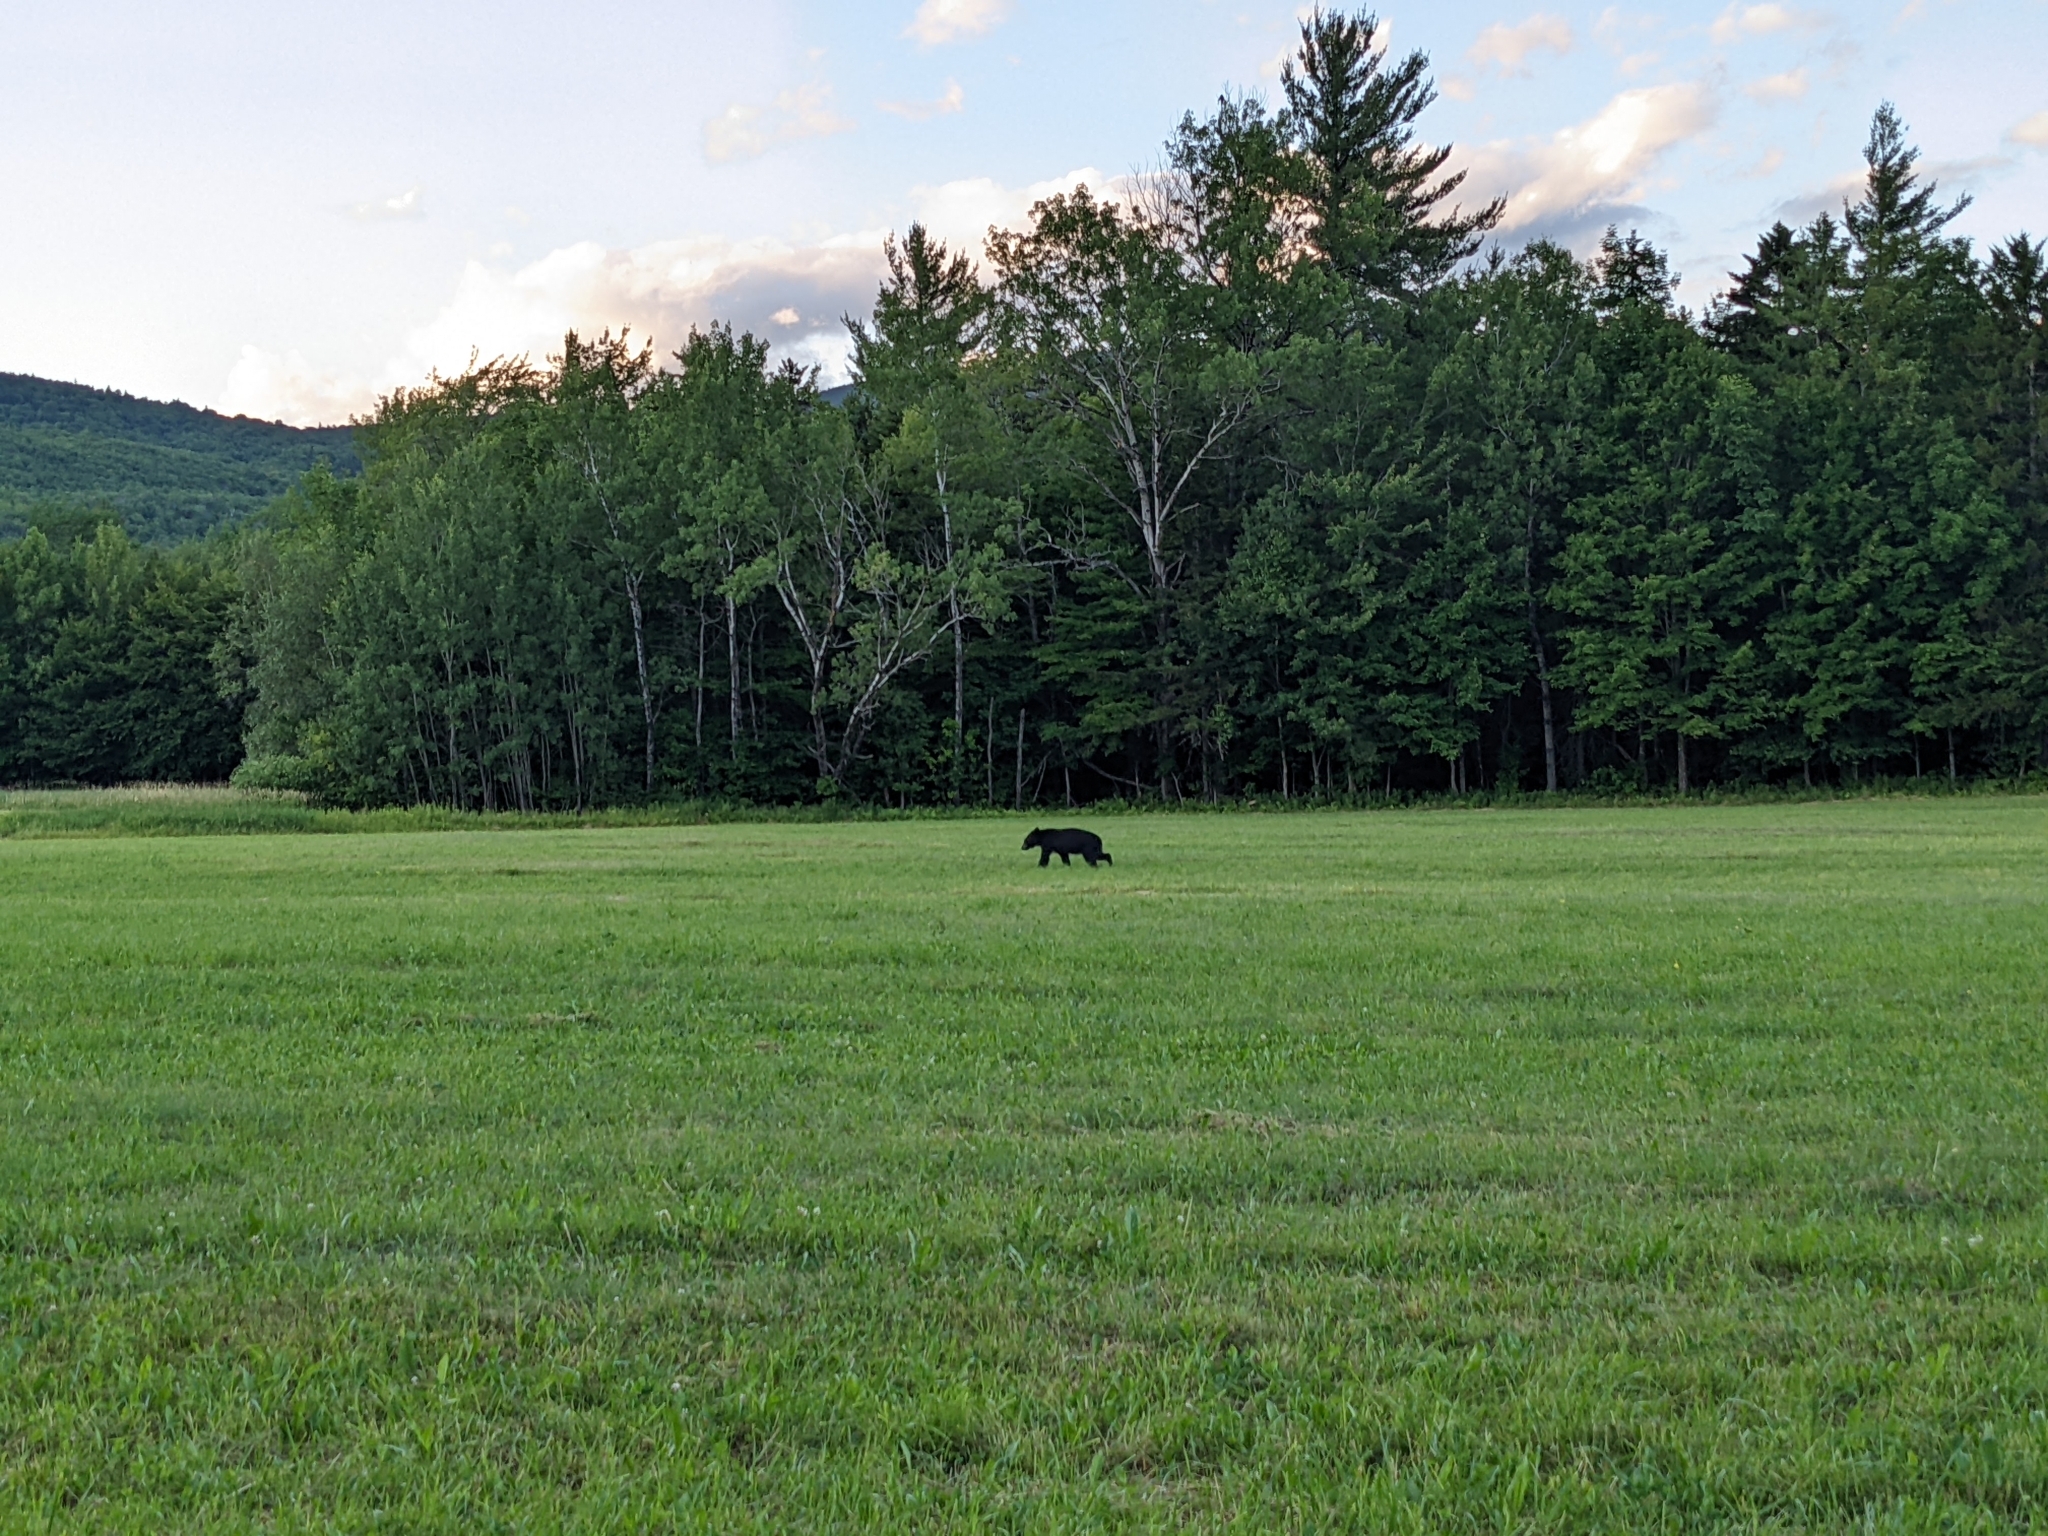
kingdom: Animalia
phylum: Chordata
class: Mammalia
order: Carnivora
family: Ursidae
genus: Ursus
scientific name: Ursus americanus
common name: American black bear
